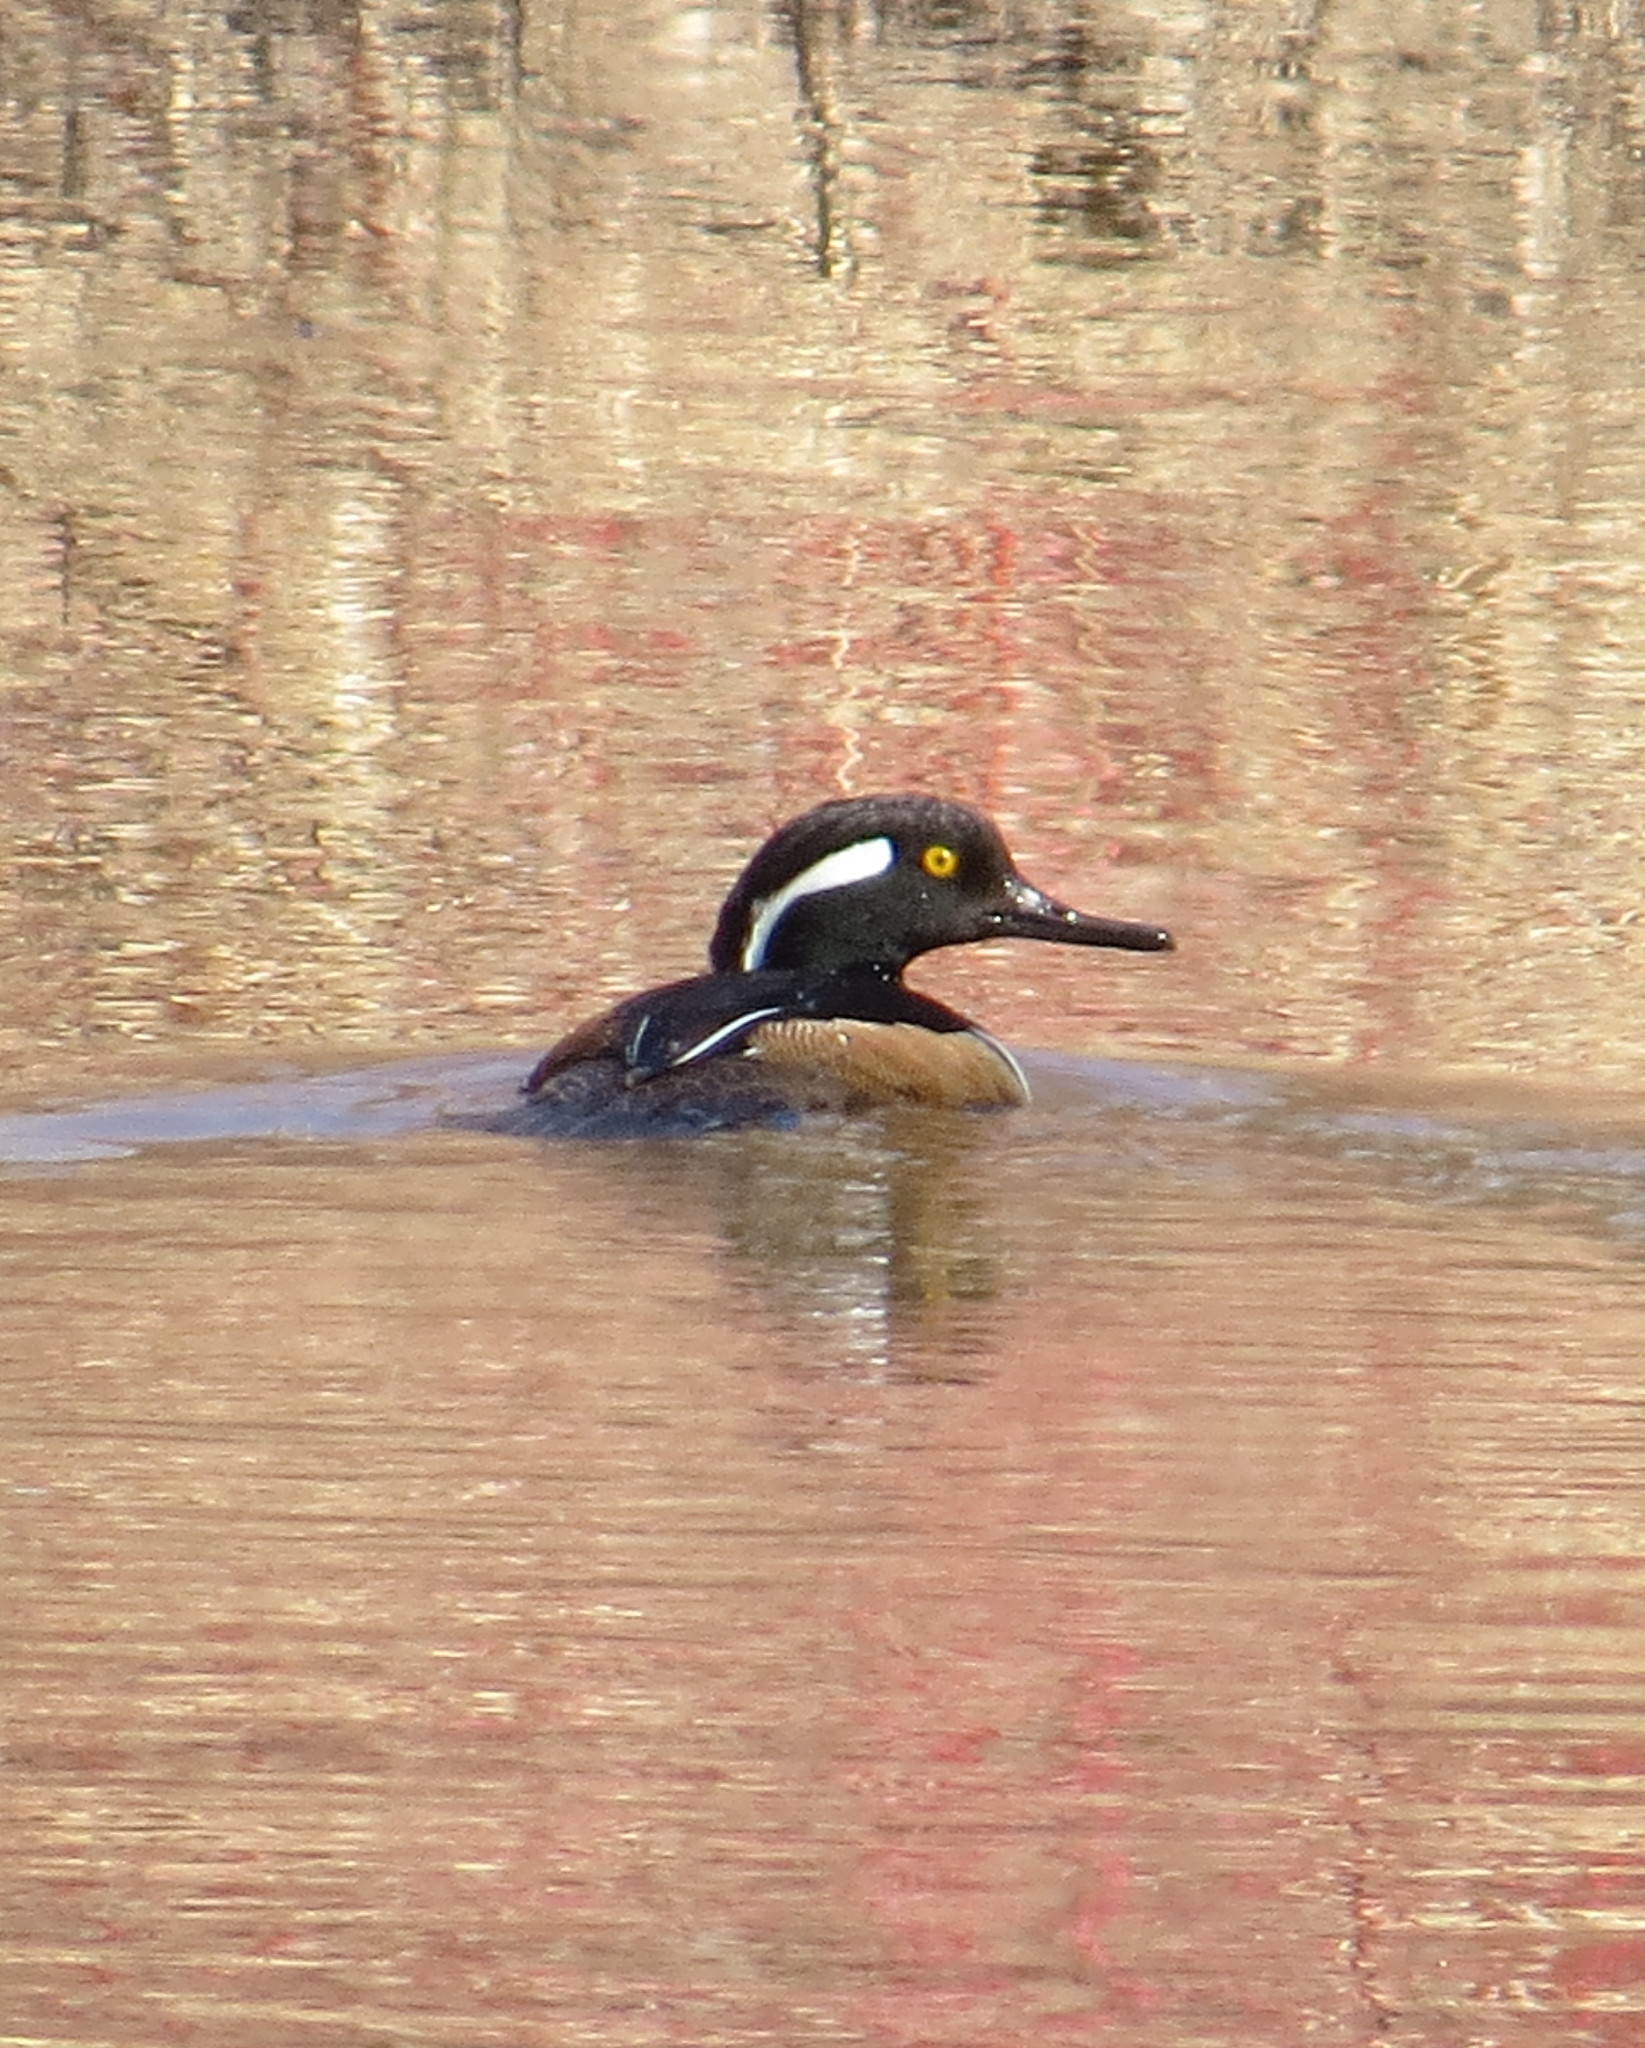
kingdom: Animalia
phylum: Chordata
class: Aves
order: Anseriformes
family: Anatidae
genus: Lophodytes
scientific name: Lophodytes cucullatus
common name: Hooded merganser
